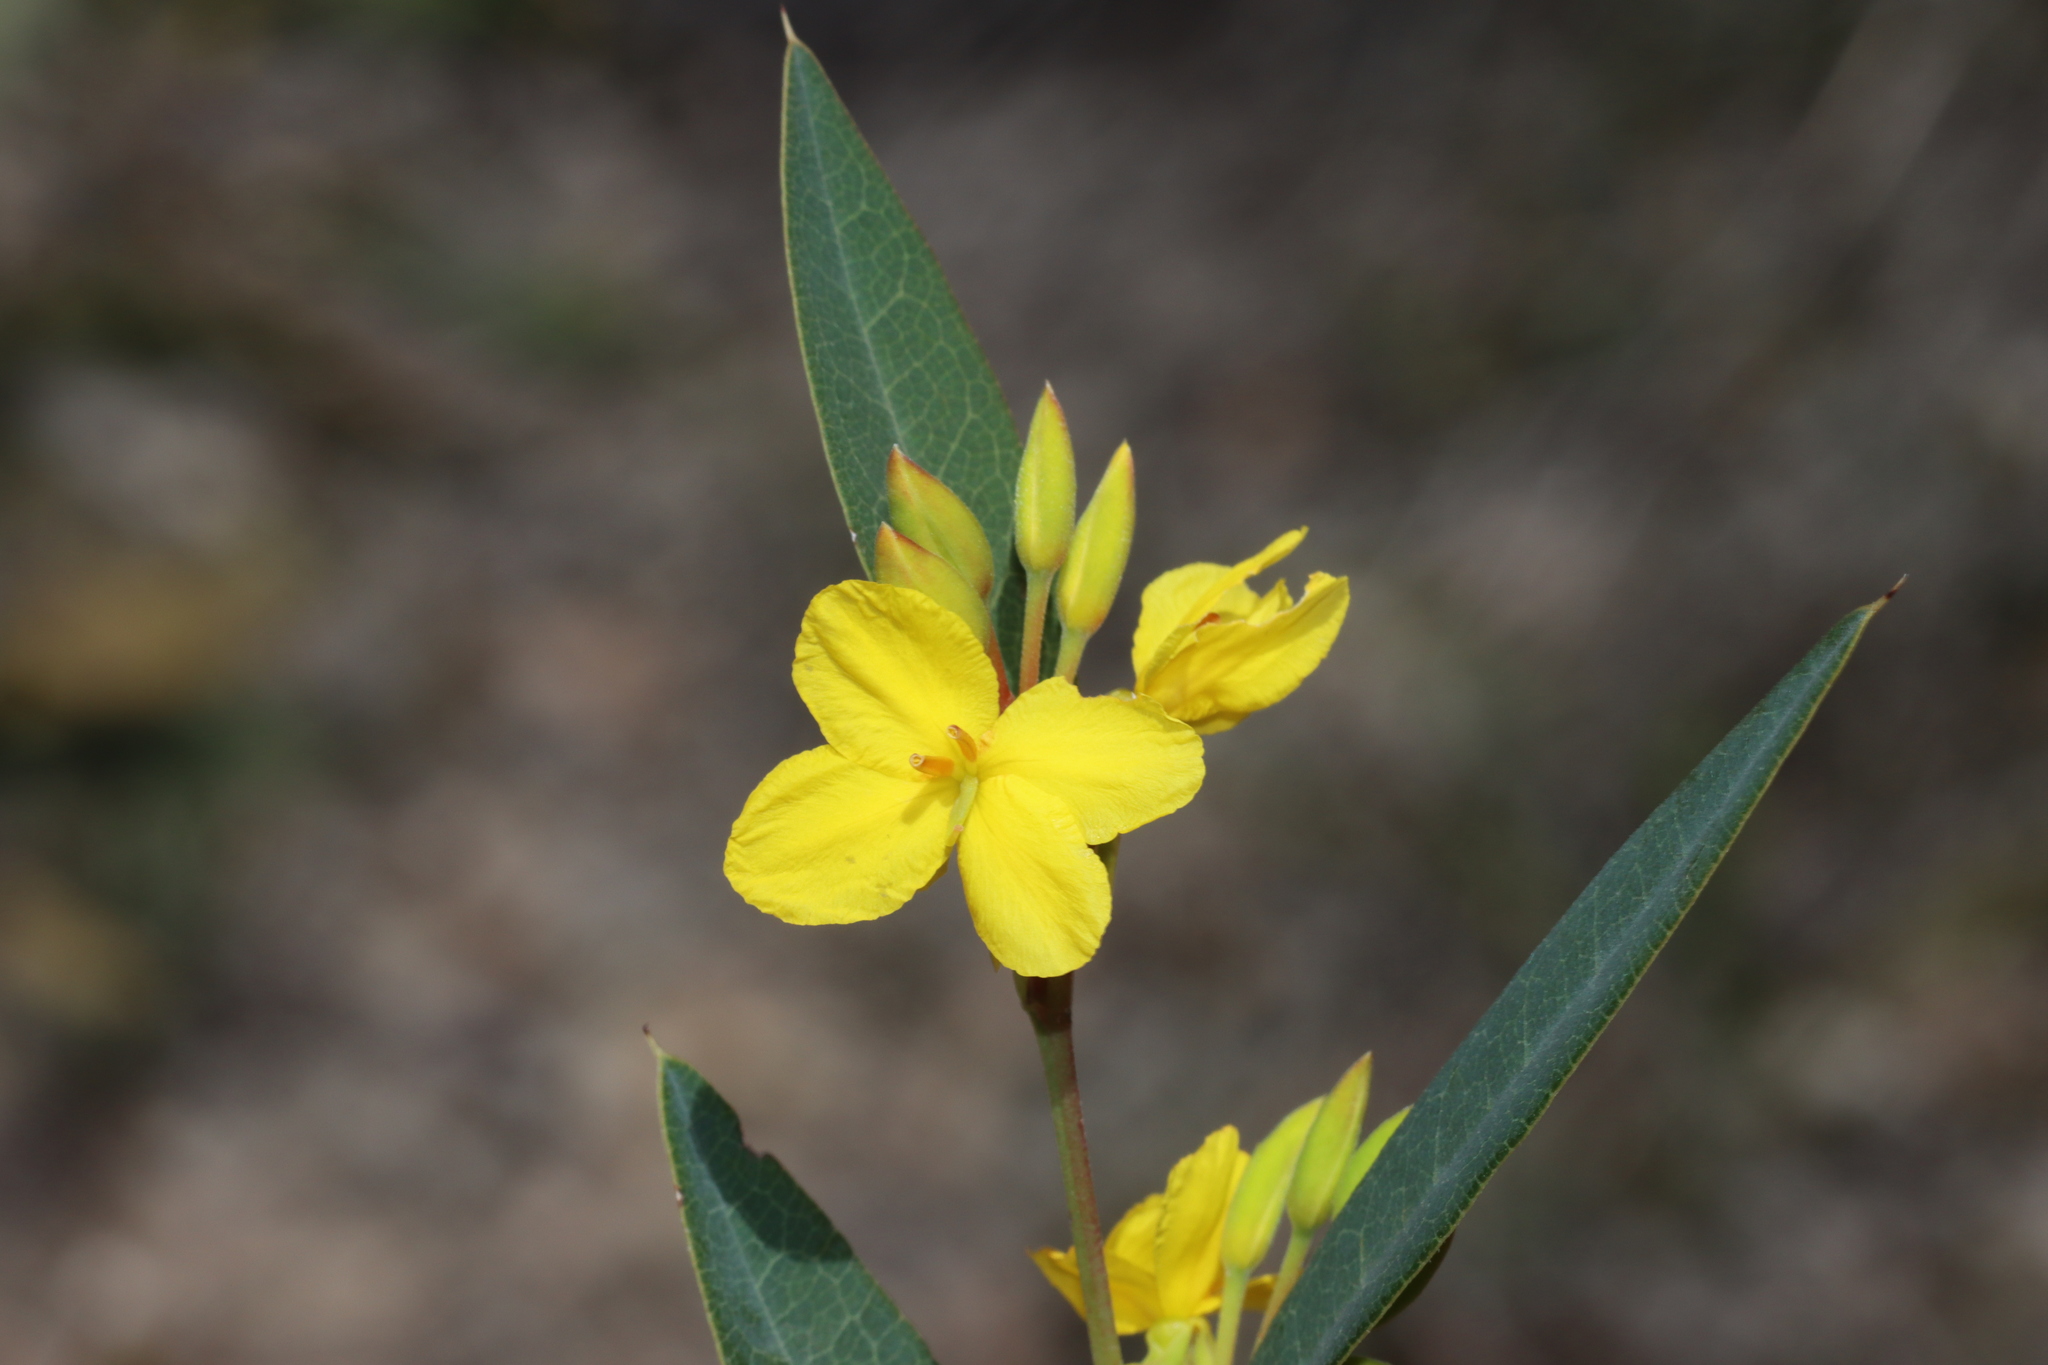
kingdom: Plantae
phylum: Tracheophyta
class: Magnoliopsida
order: Fabales
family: Fabaceae
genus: Labichea
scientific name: Labichea punctata
